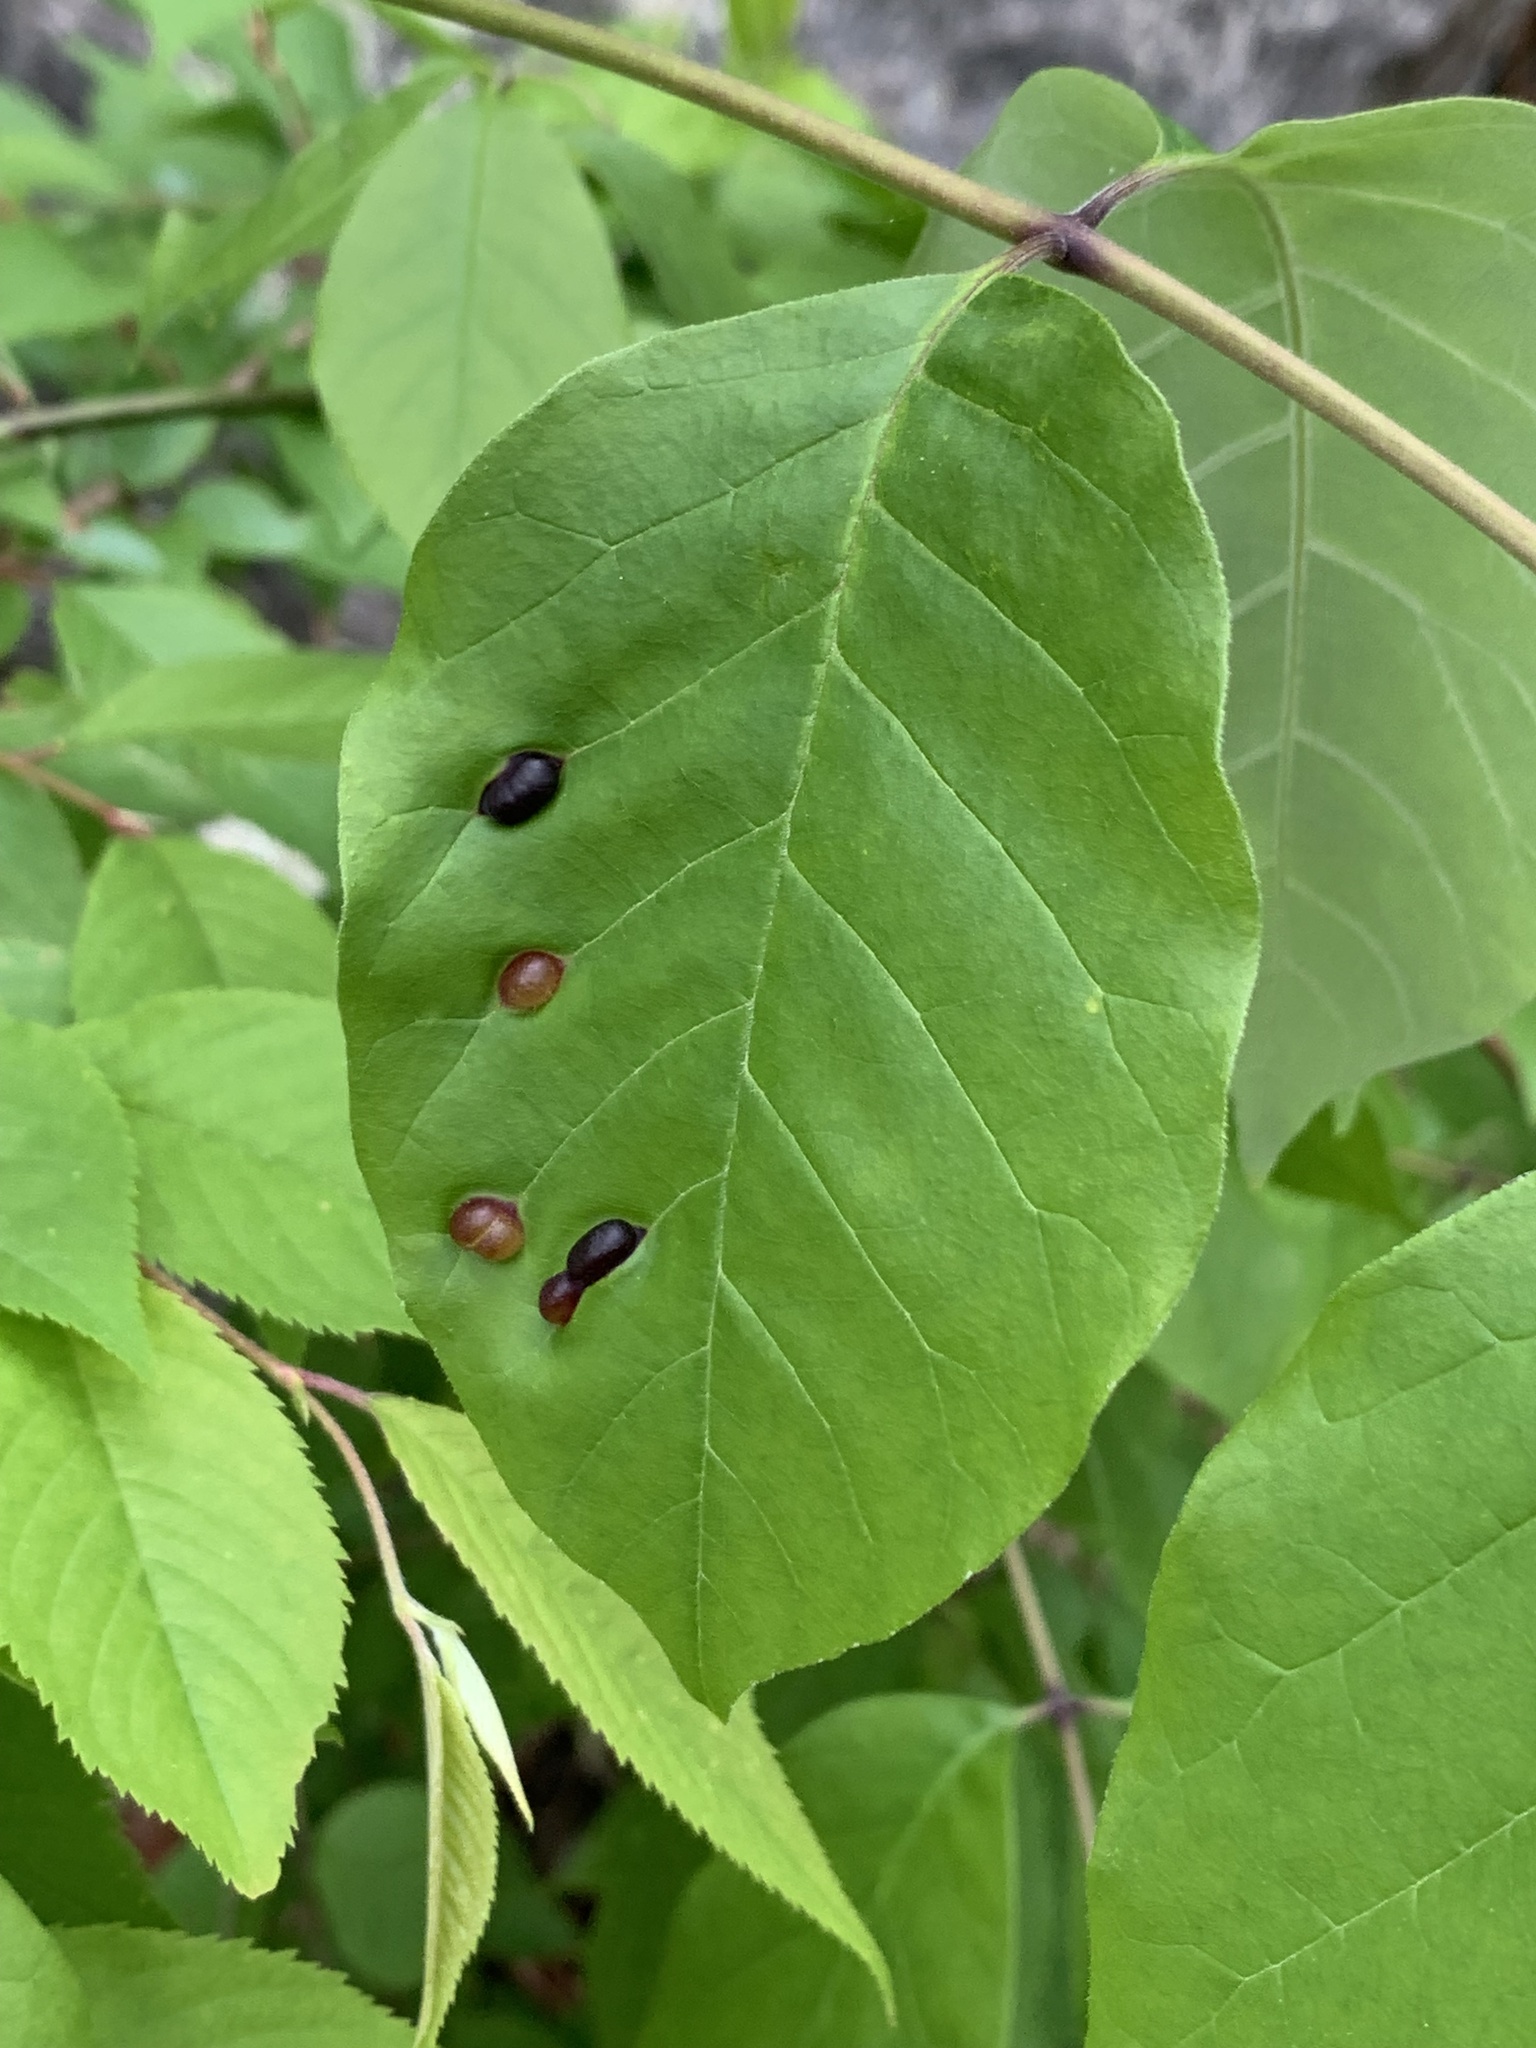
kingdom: Animalia
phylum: Arthropoda
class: Insecta
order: Diptera
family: Cecidomyiidae
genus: Dasineura
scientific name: Dasineura pellex
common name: Ash bullet gall midge
